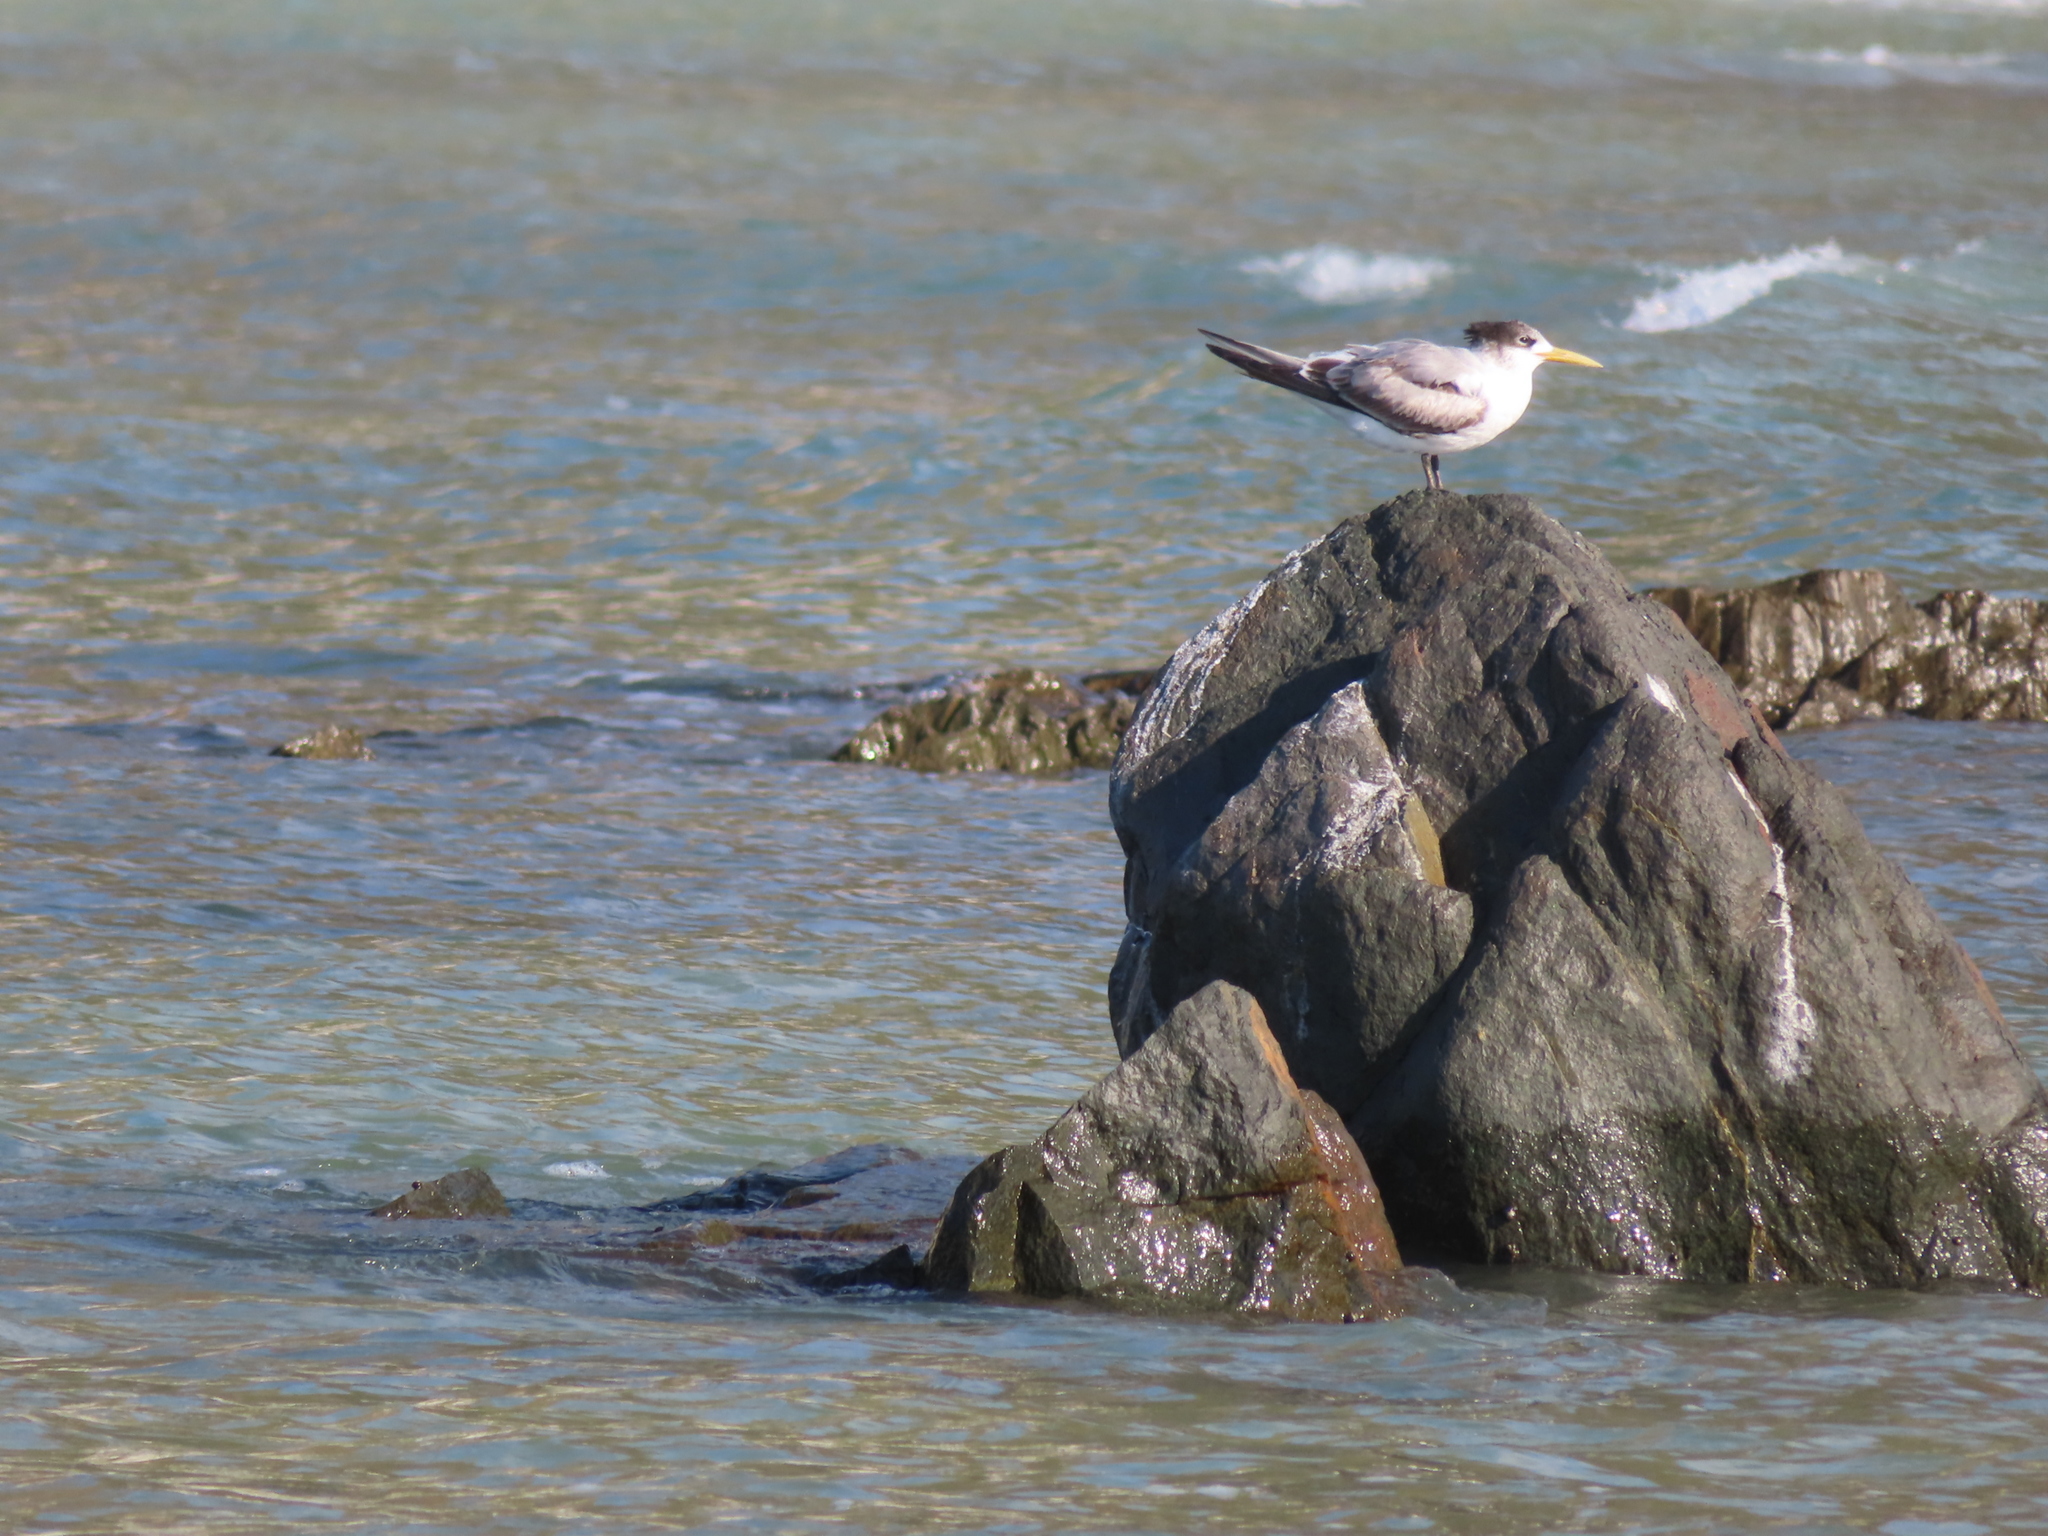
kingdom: Animalia
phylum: Chordata
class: Aves
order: Charadriiformes
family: Laridae
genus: Thalasseus
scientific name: Thalasseus bergii
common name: Greater crested tern
